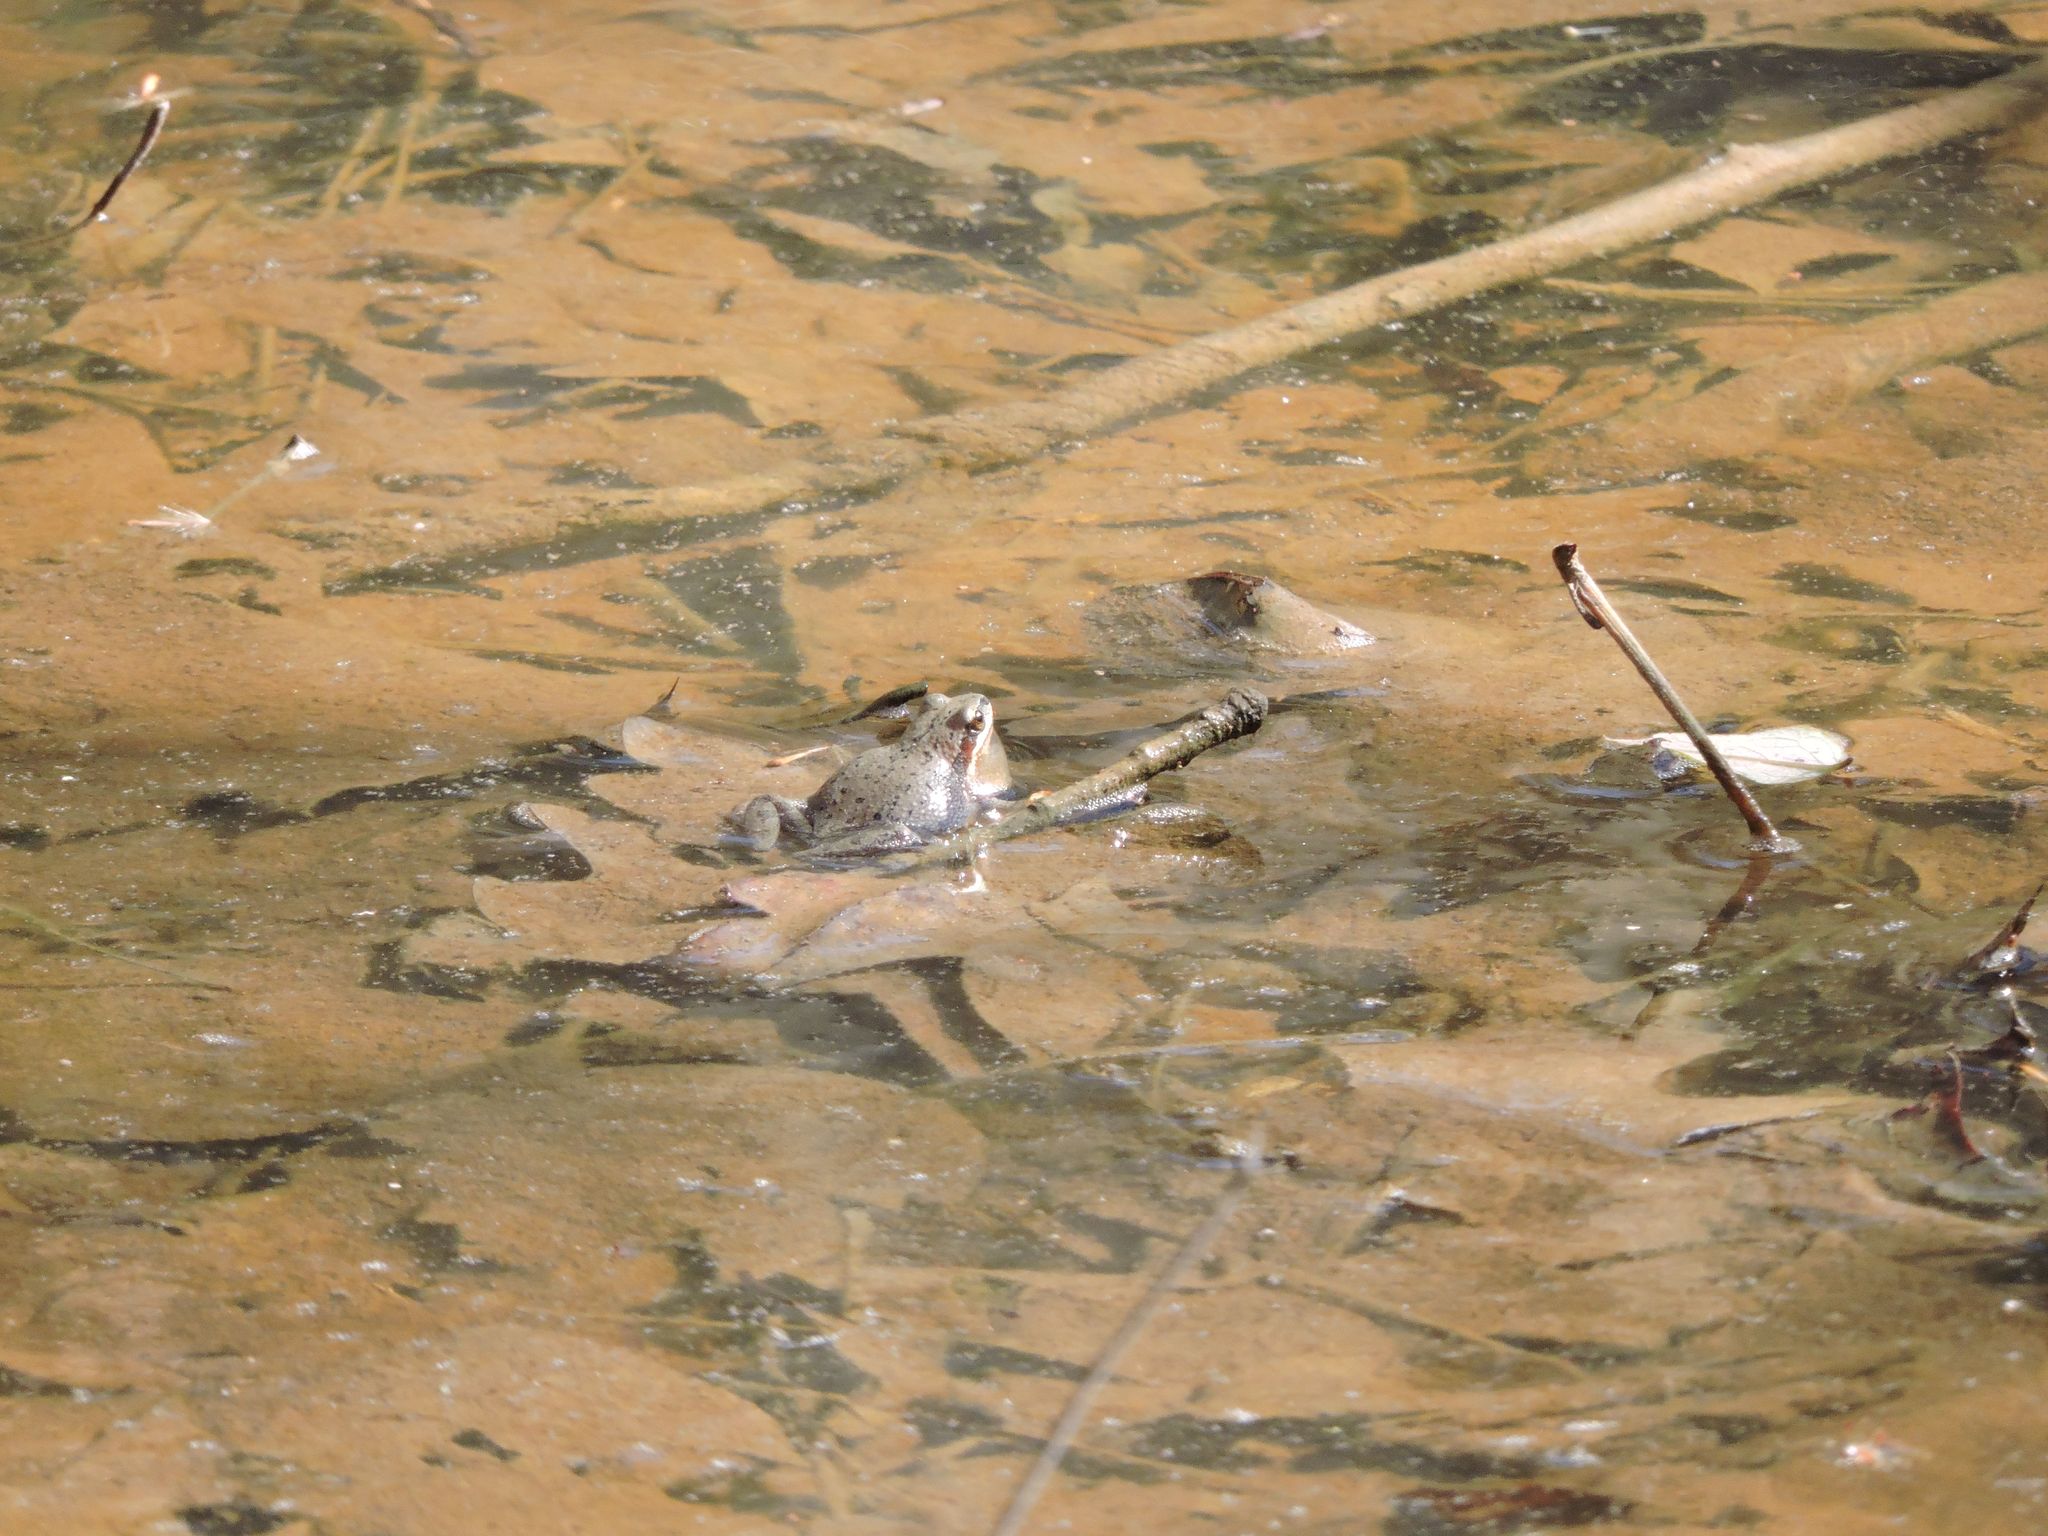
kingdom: Animalia
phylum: Chordata
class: Amphibia
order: Anura
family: Hylidae
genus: Pseudacris
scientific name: Pseudacris feriarum
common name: Upland chorus frog
